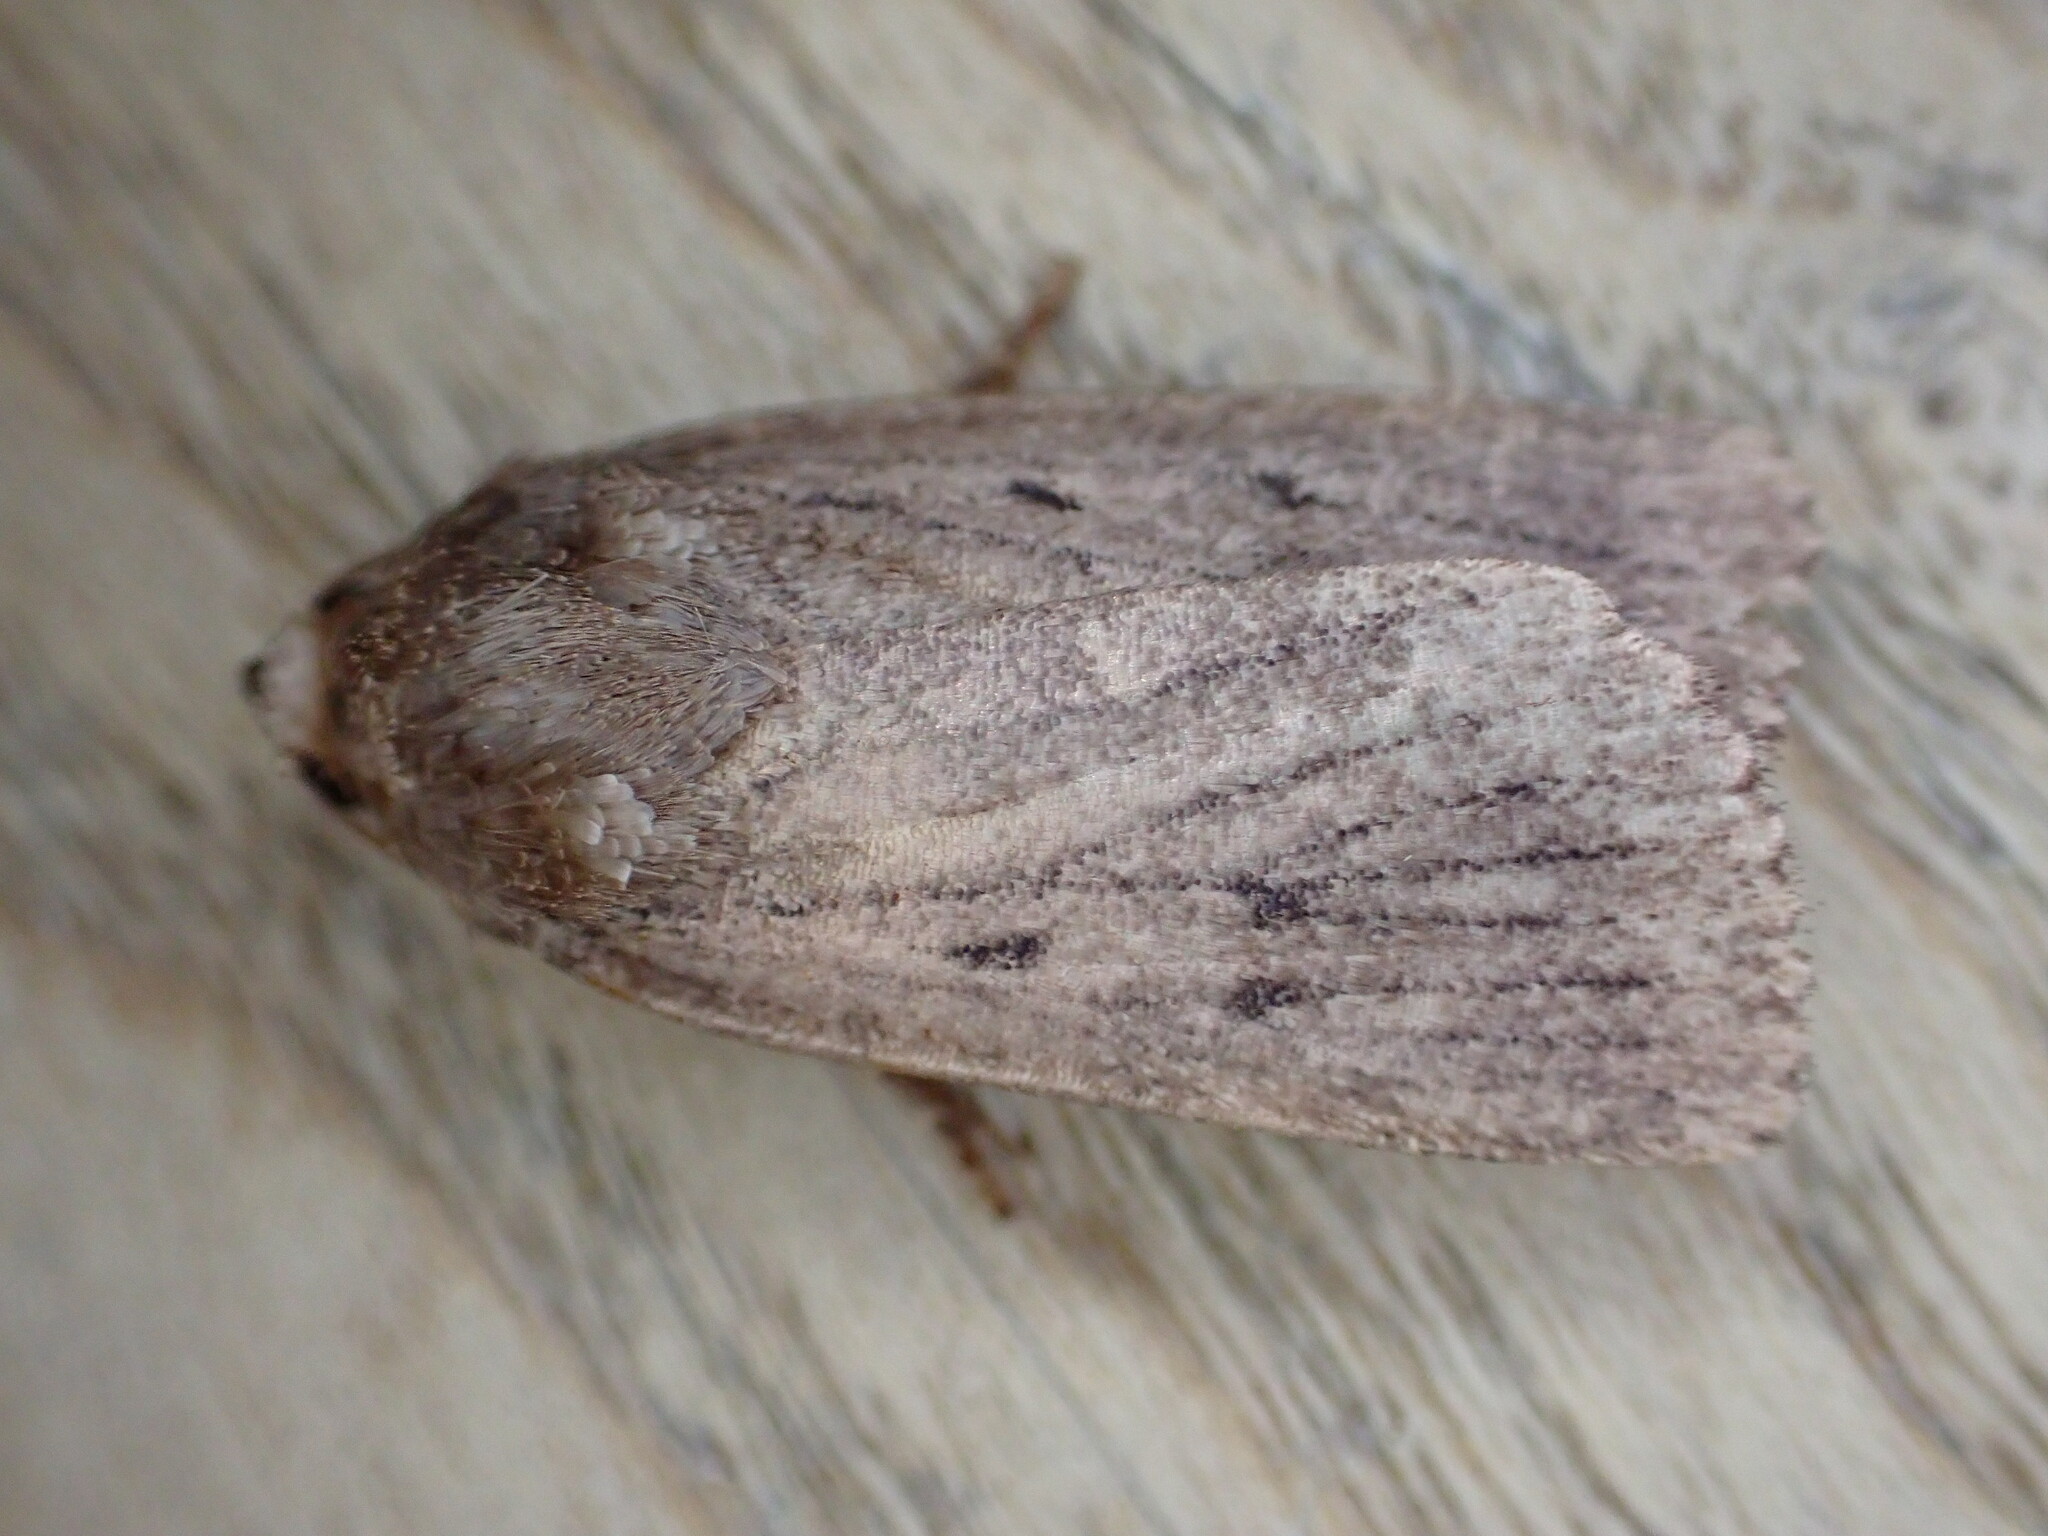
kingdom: Animalia
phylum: Arthropoda
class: Insecta
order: Lepidoptera
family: Noctuidae
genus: Amphipyra
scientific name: Amphipyra tragopoginis
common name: Mouse moth
